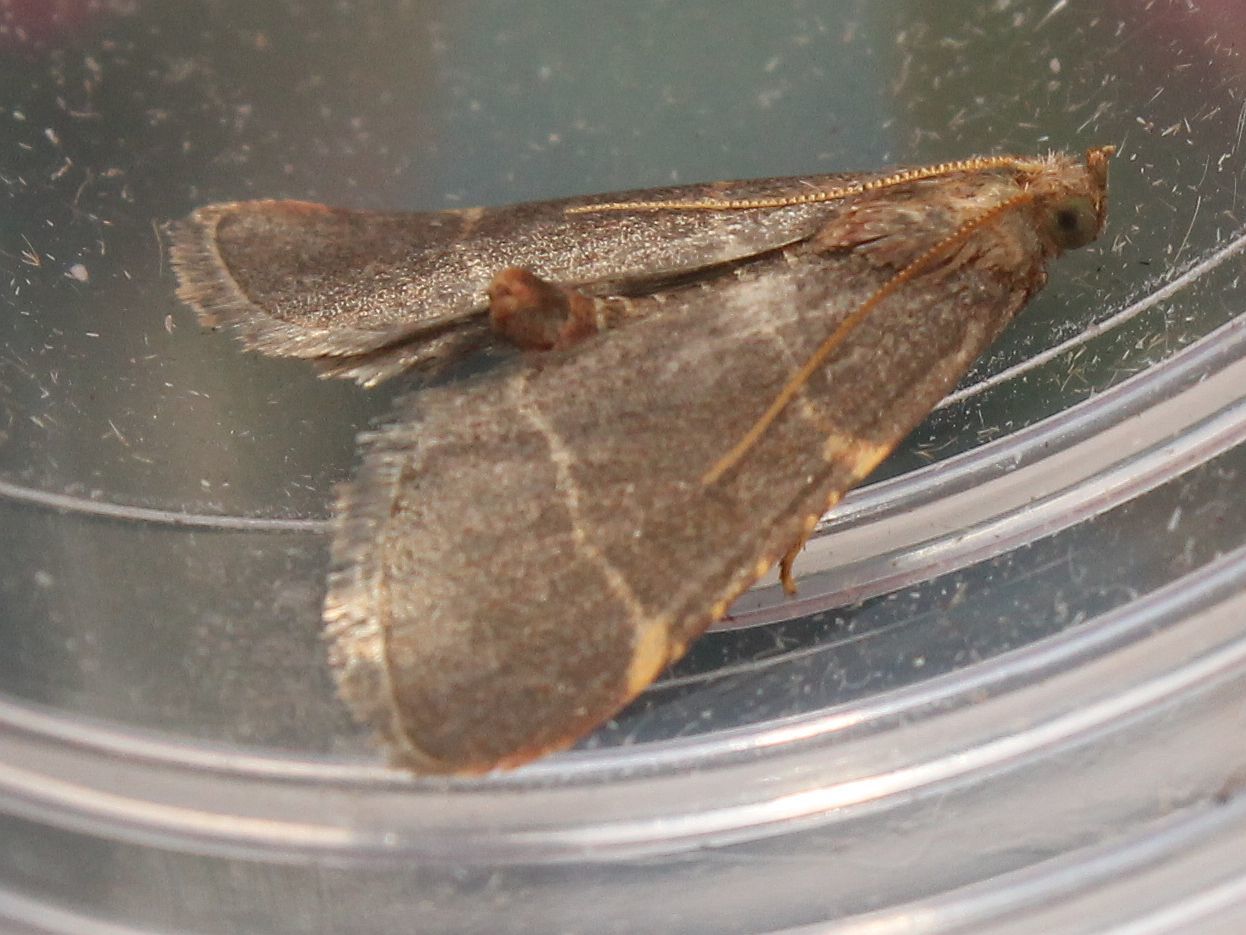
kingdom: Animalia
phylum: Arthropoda
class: Insecta
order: Lepidoptera
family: Pyralidae
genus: Hypsopygia
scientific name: Hypsopygia glaucinalis
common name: Double-striped tabby
